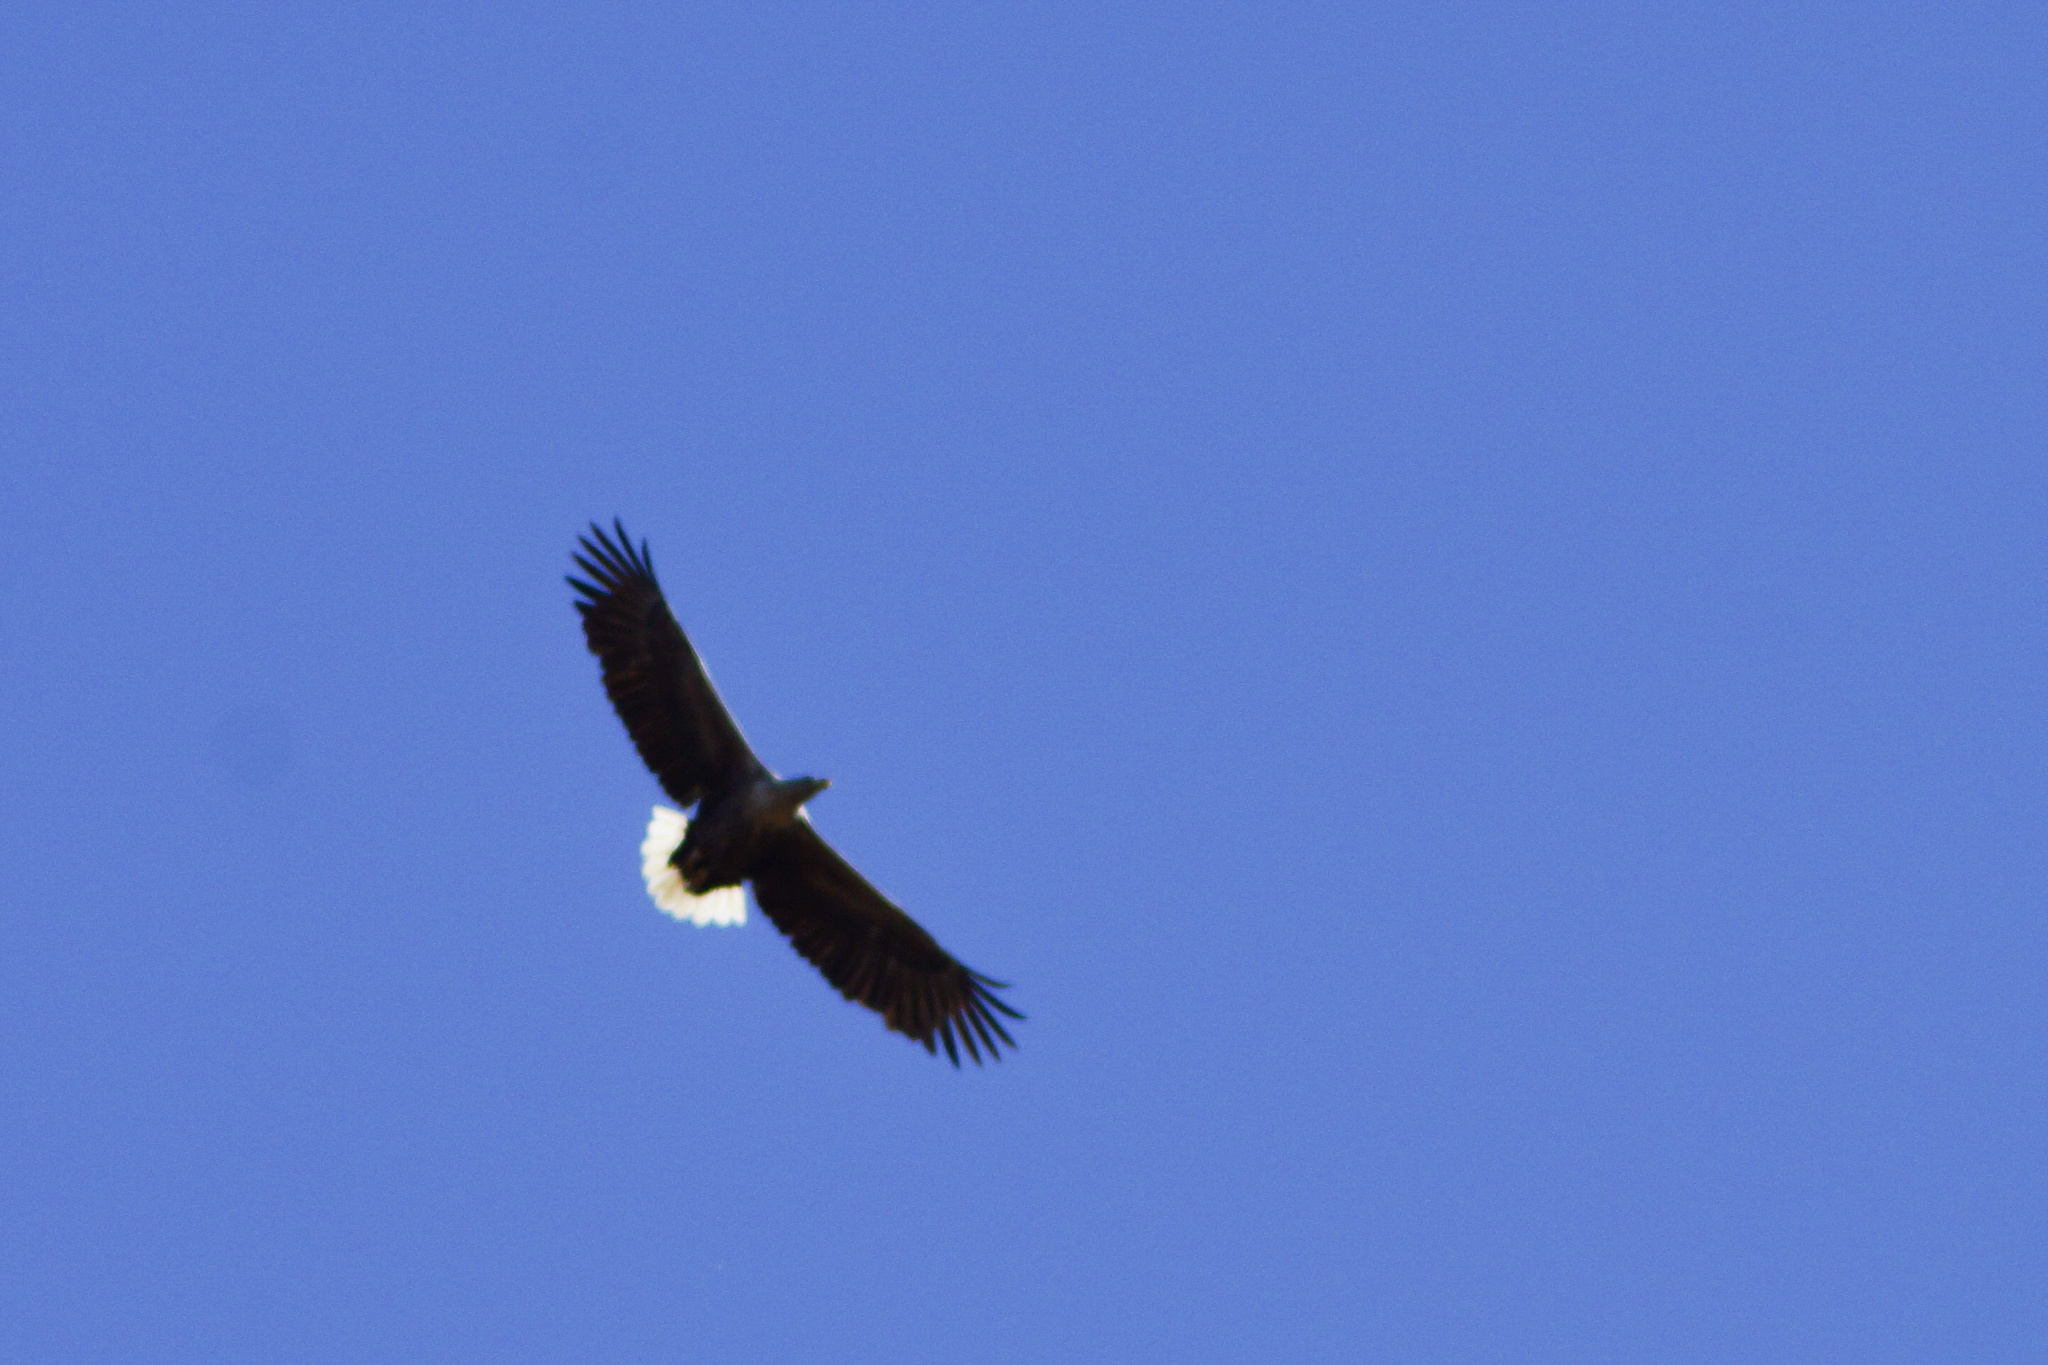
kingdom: Animalia
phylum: Chordata
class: Aves
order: Accipitriformes
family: Accipitridae
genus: Haliaeetus
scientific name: Haliaeetus albicilla
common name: White-tailed eagle
